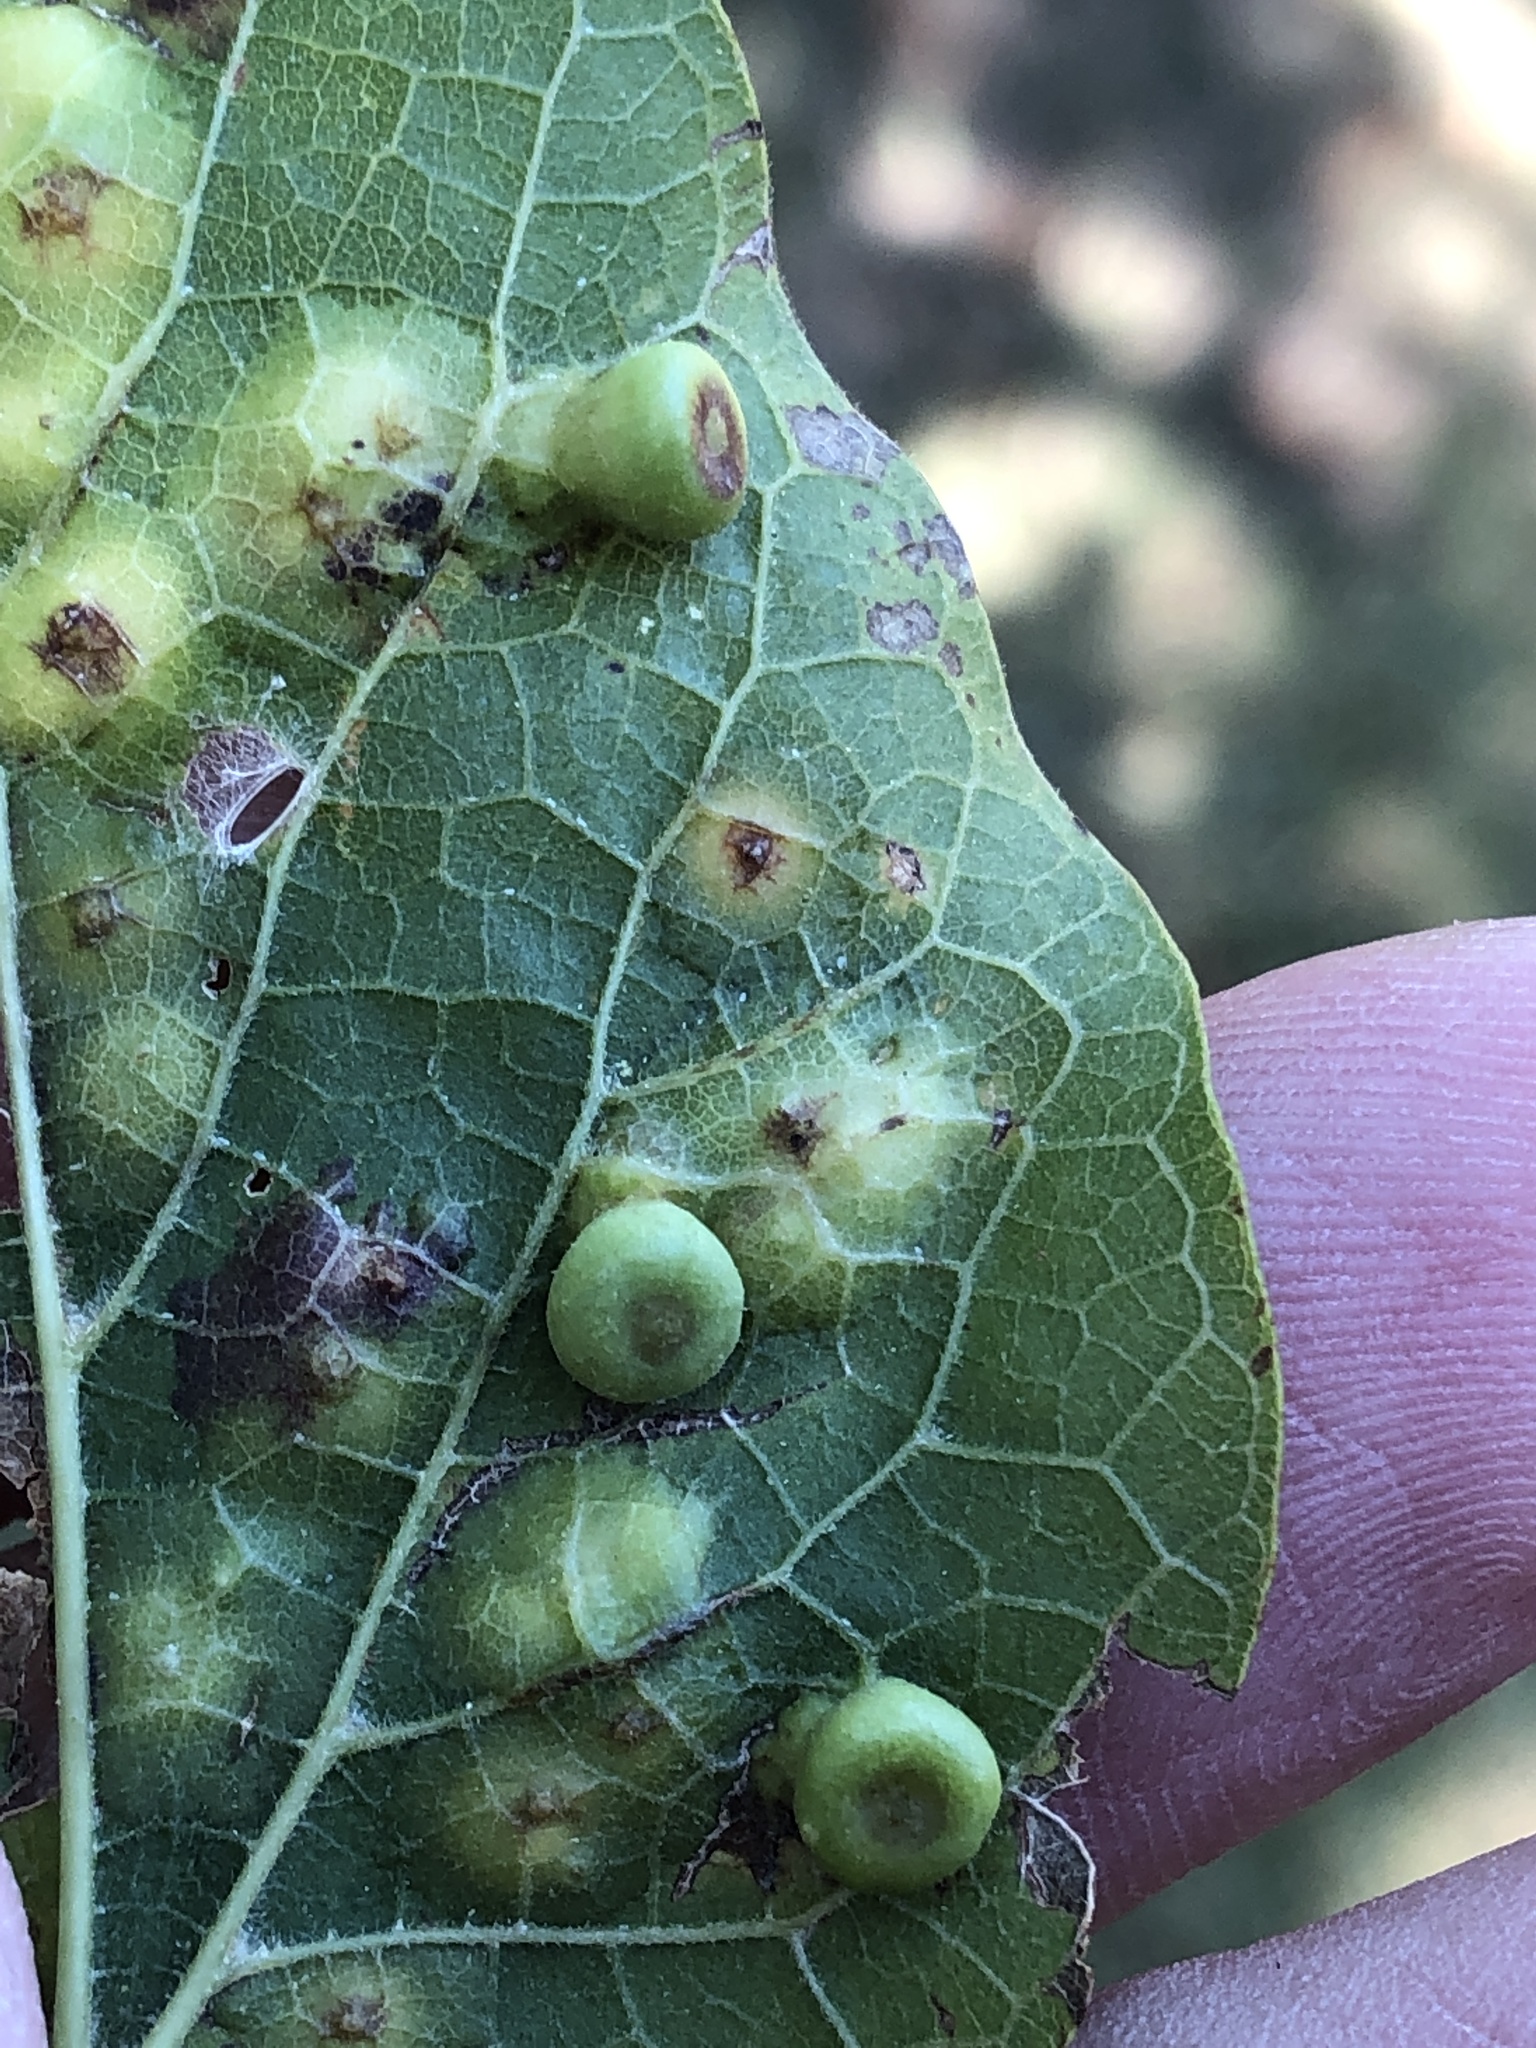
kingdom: Animalia
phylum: Arthropoda
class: Insecta
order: Hemiptera
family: Aphalaridae
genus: Pachypsylla
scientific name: Pachypsylla celtidismamma
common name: Hackberry nipplegall psyllid
